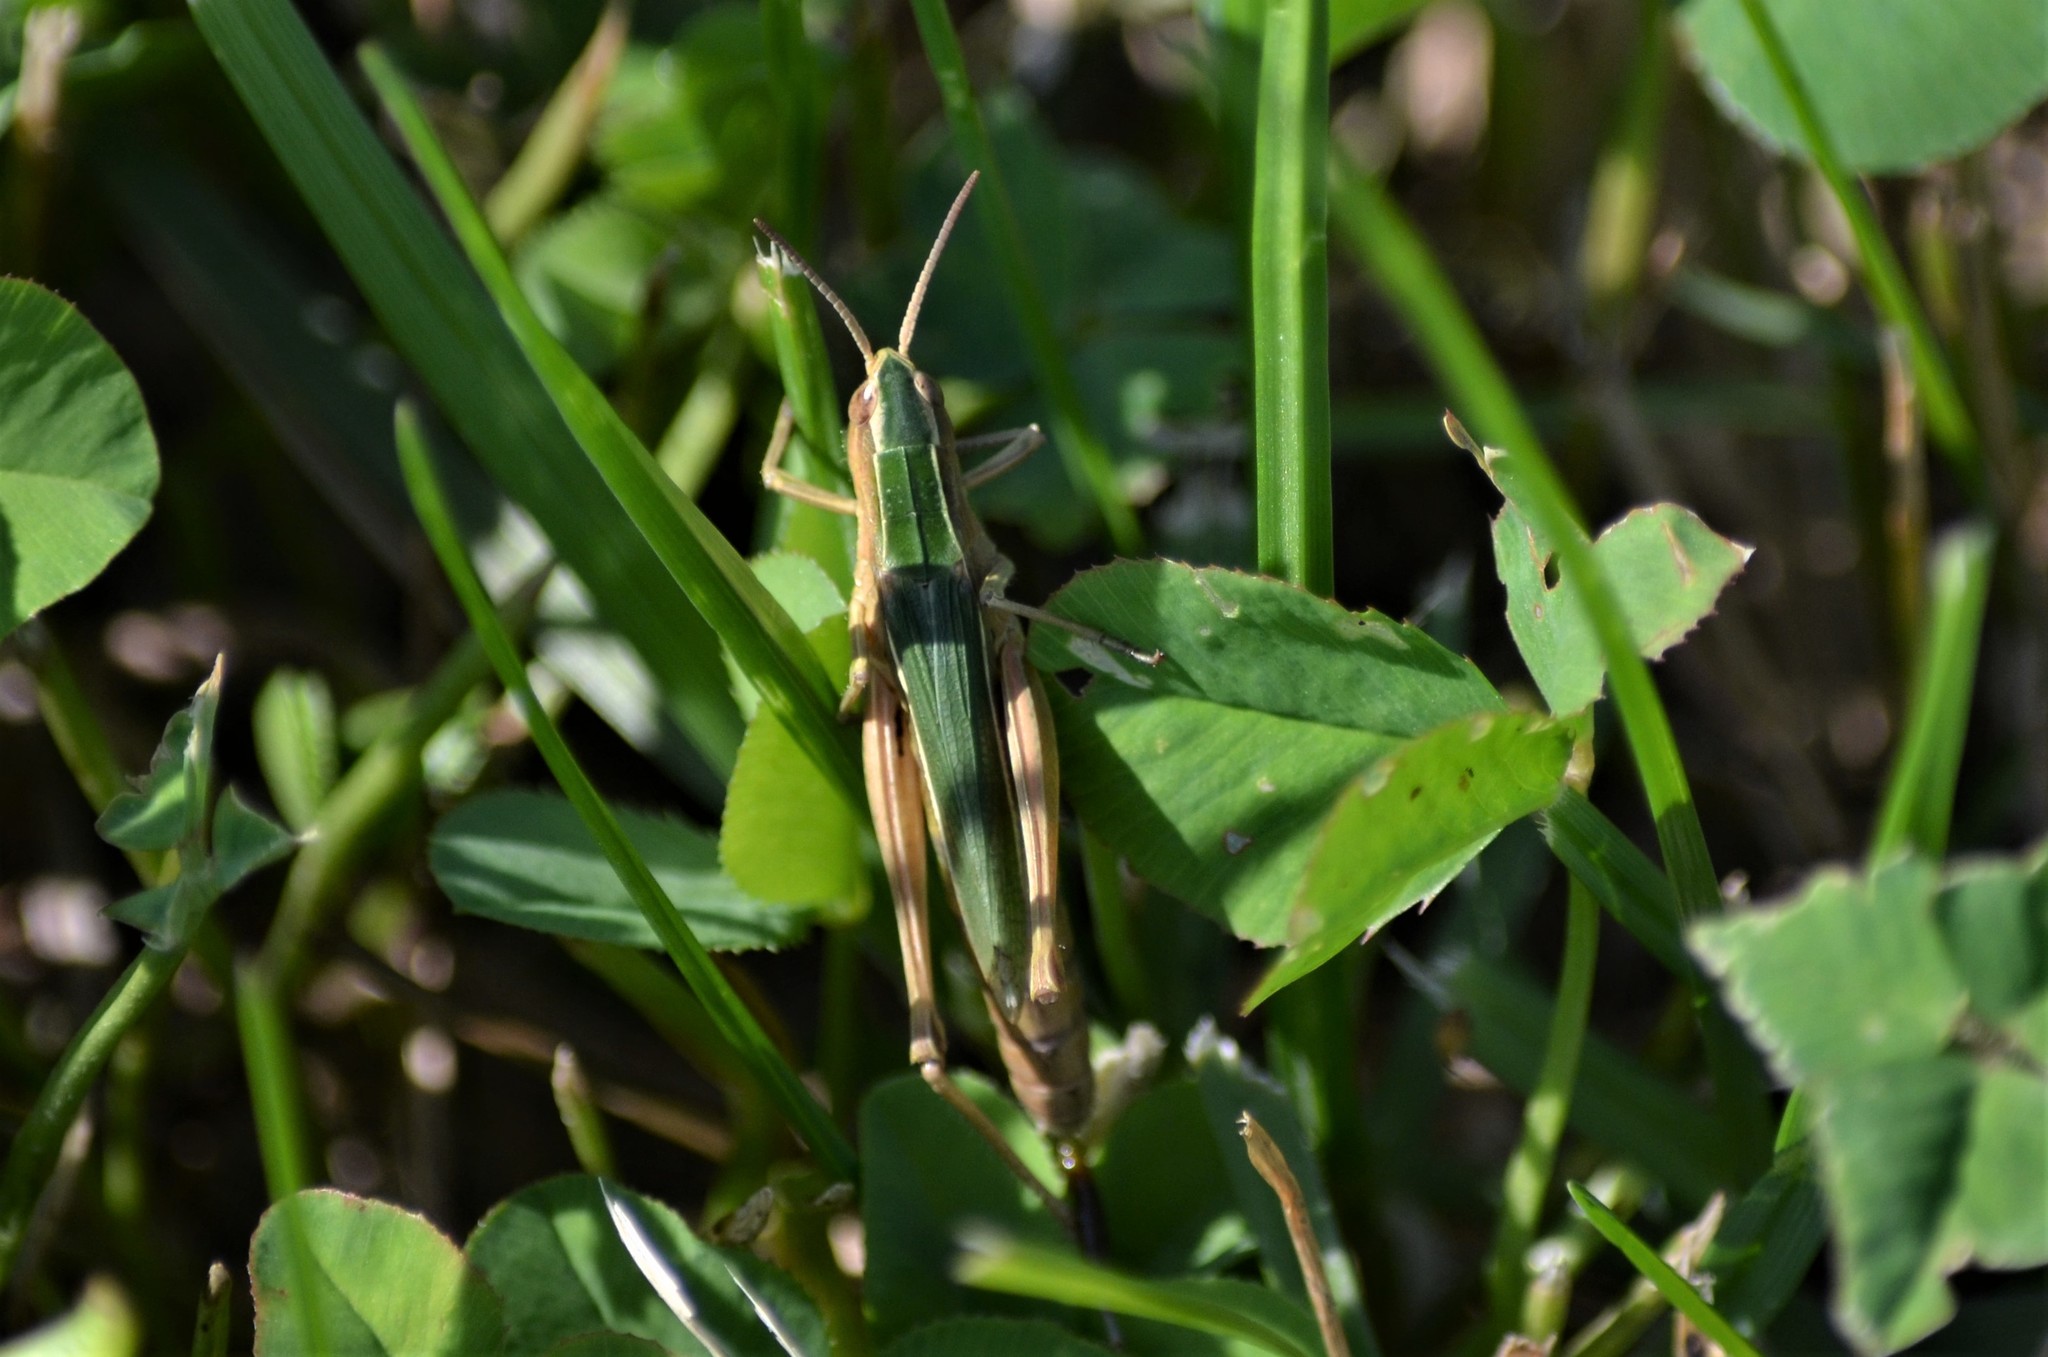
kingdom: Animalia
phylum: Arthropoda
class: Insecta
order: Orthoptera
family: Acrididae
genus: Chorthippus
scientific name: Chorthippus albomarginatus
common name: Lesser marsh grasshopper
